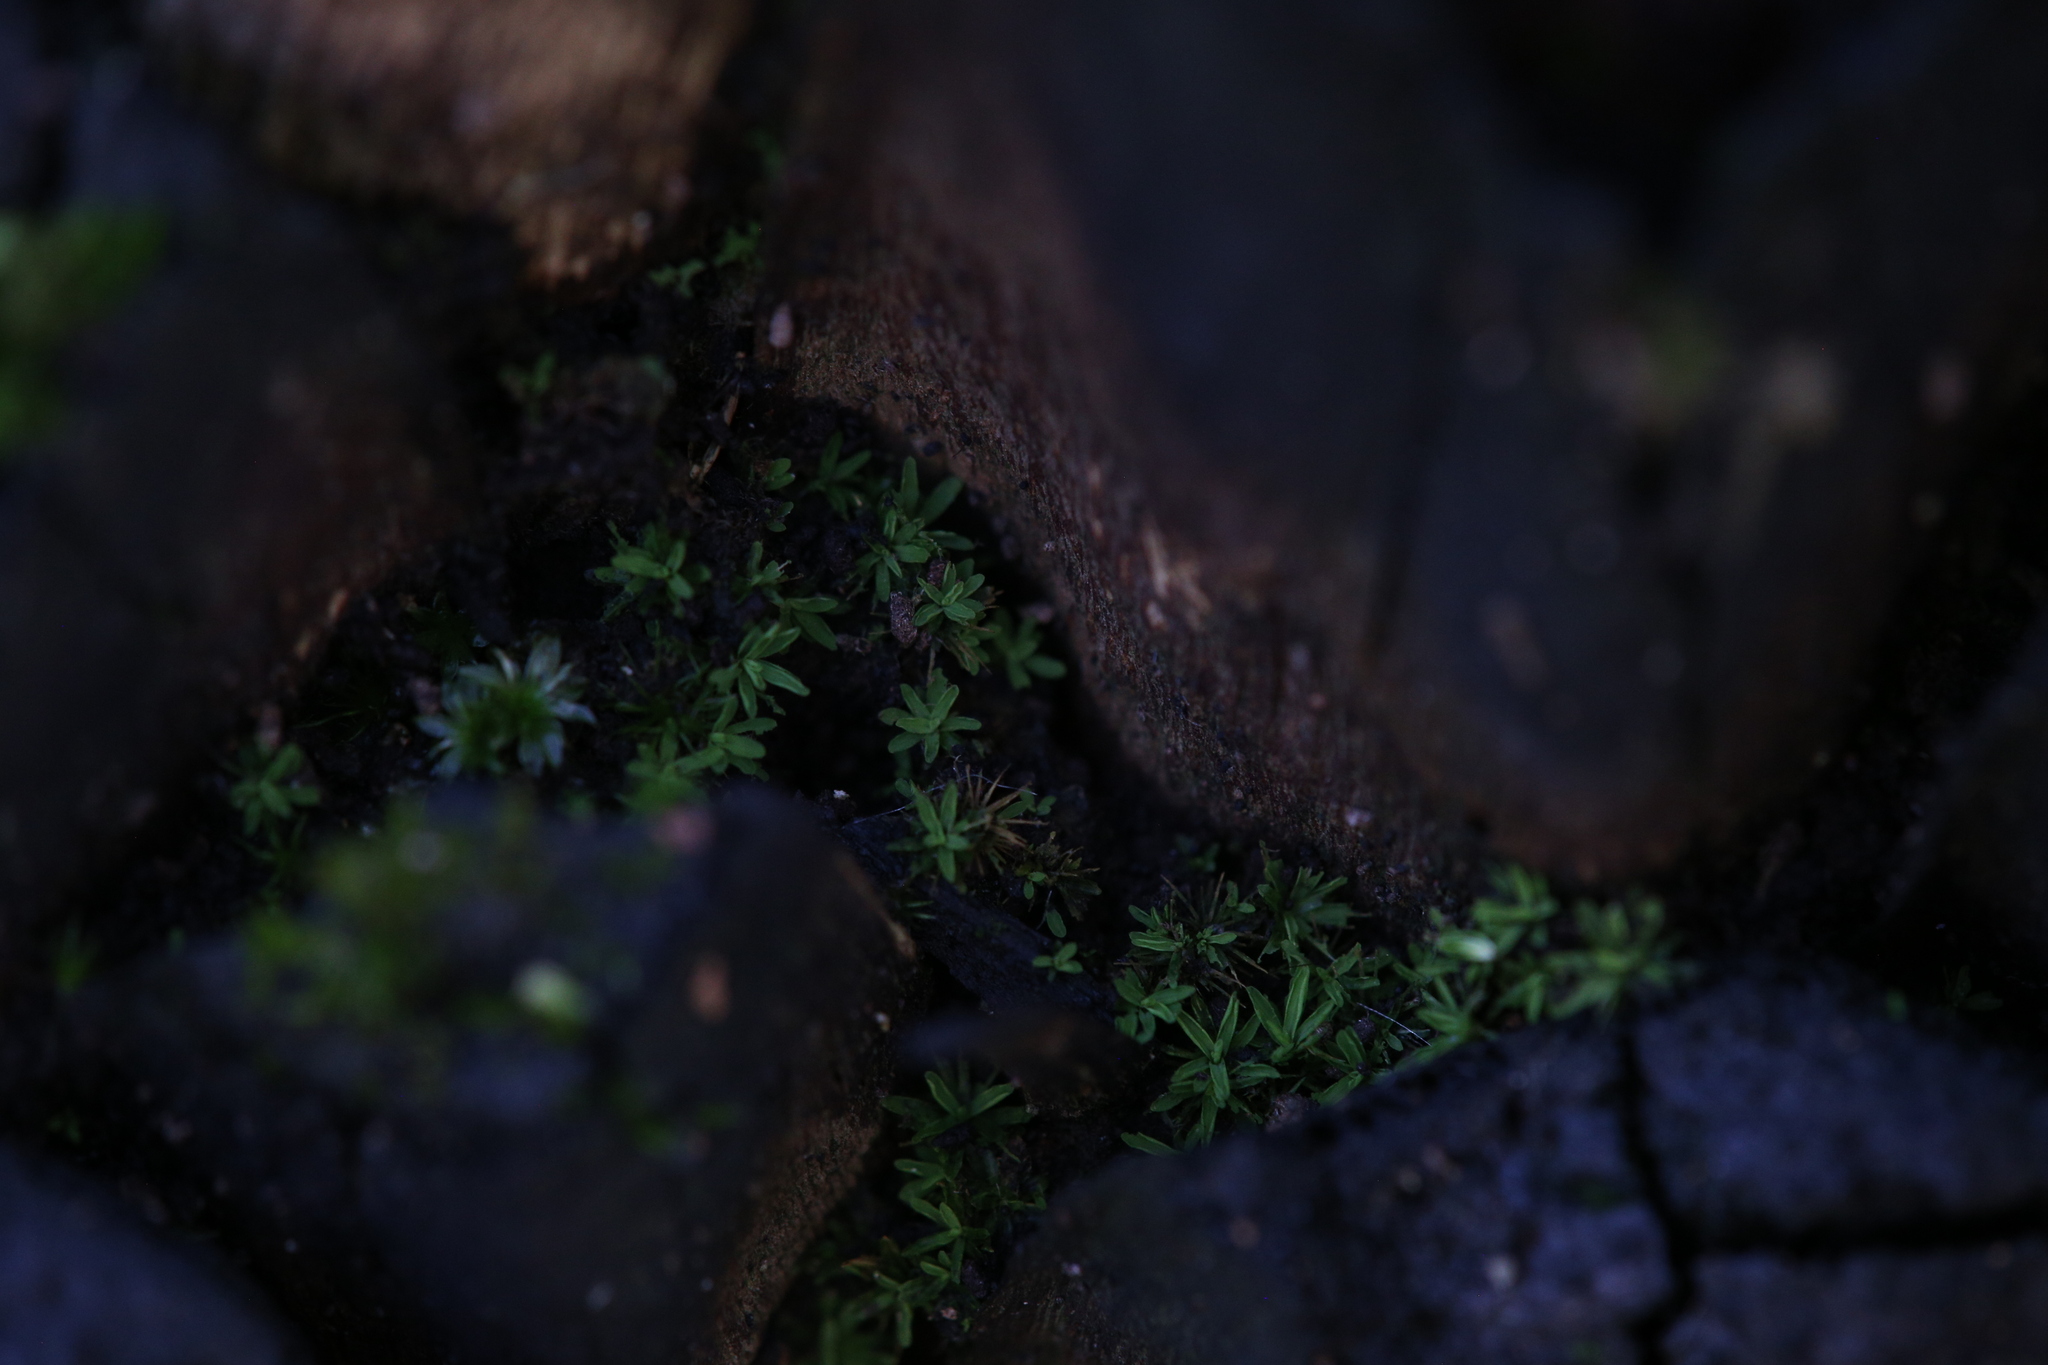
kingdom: Plantae
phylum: Bryophyta
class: Bryopsida
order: Pottiales
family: Pottiaceae
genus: Calymperastrum
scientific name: Calymperastrum latifolium
